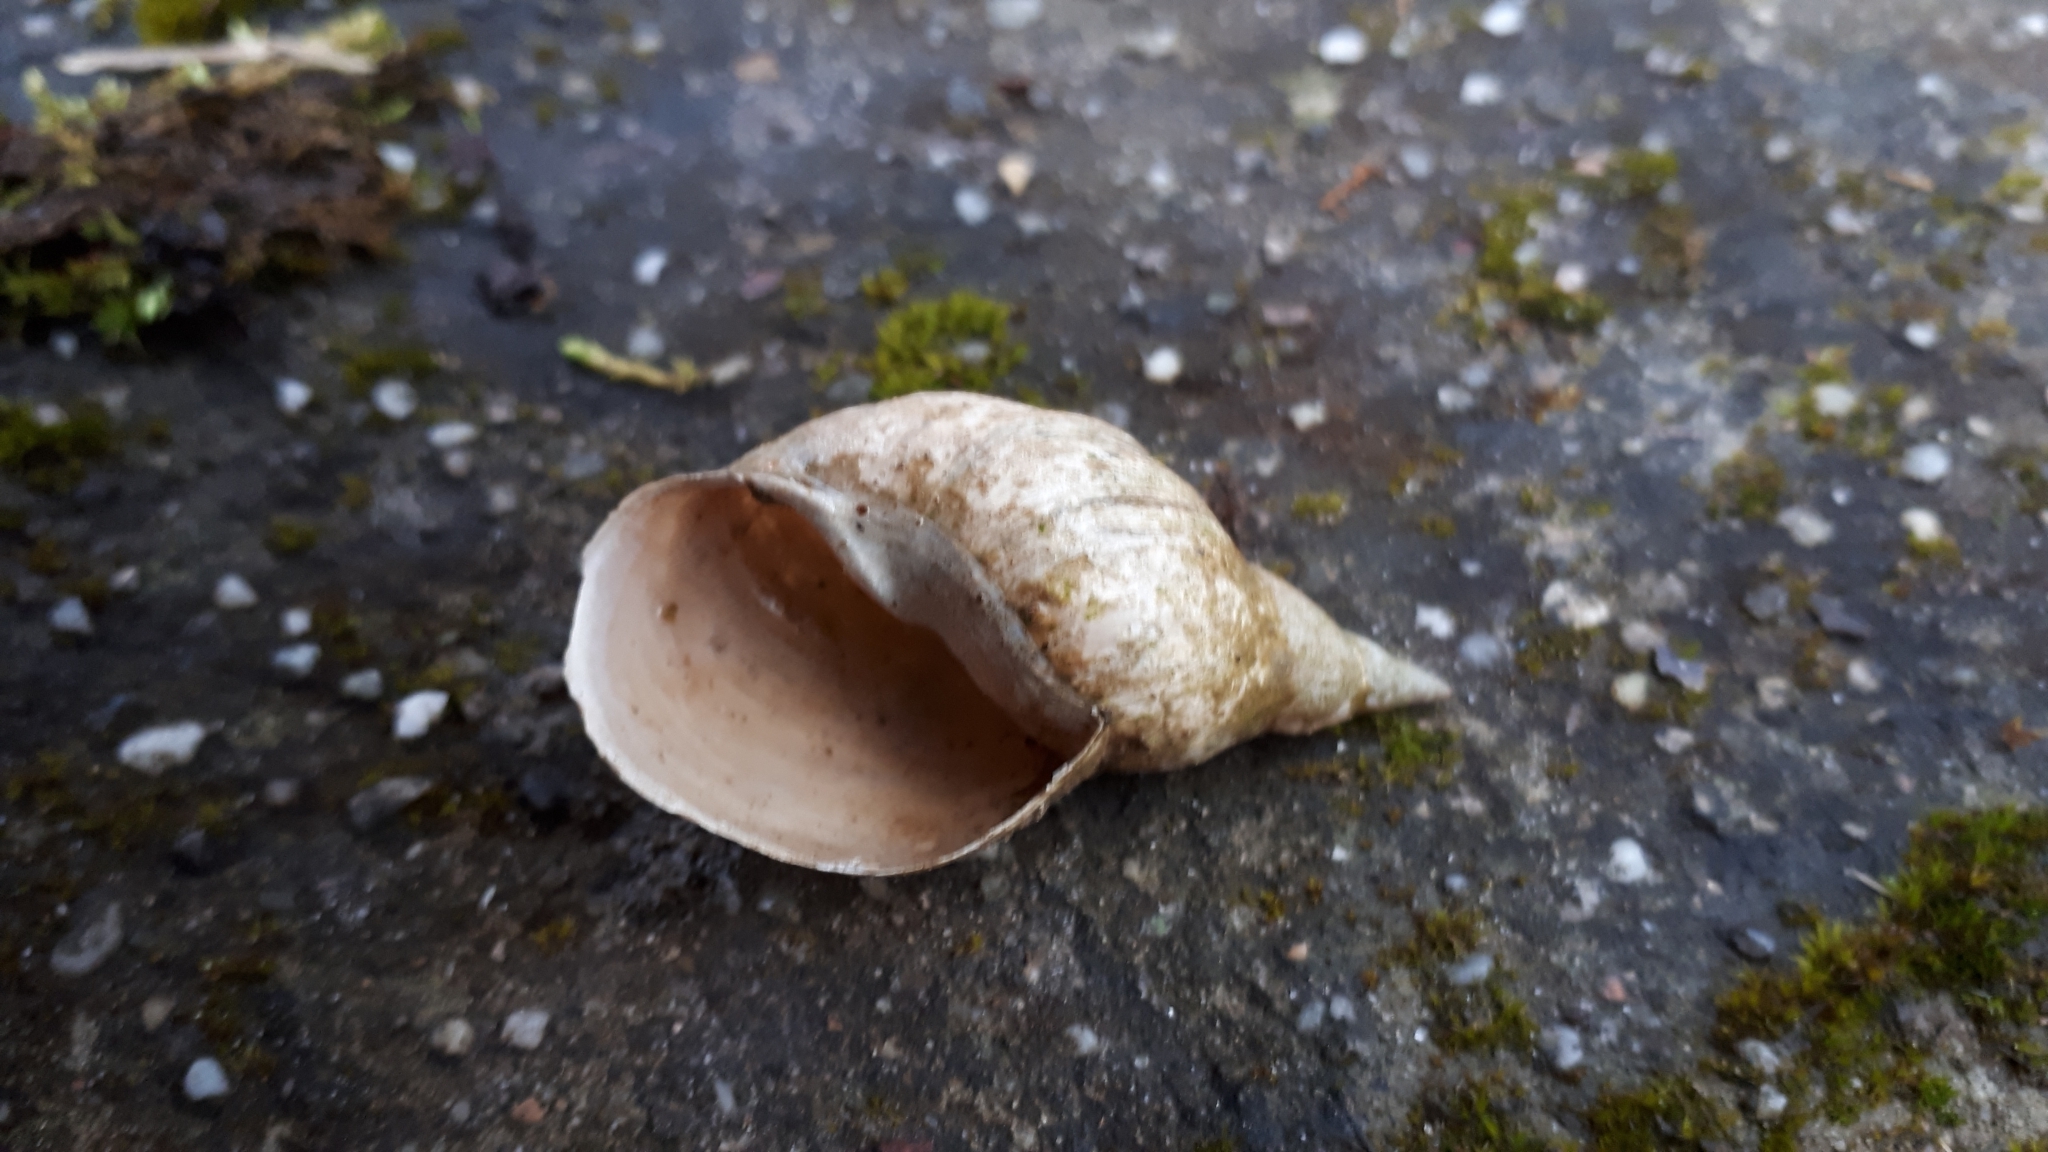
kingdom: Animalia
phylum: Mollusca
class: Gastropoda
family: Lymnaeidae
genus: Lymnaea
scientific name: Lymnaea stagnalis
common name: Great pond snail
